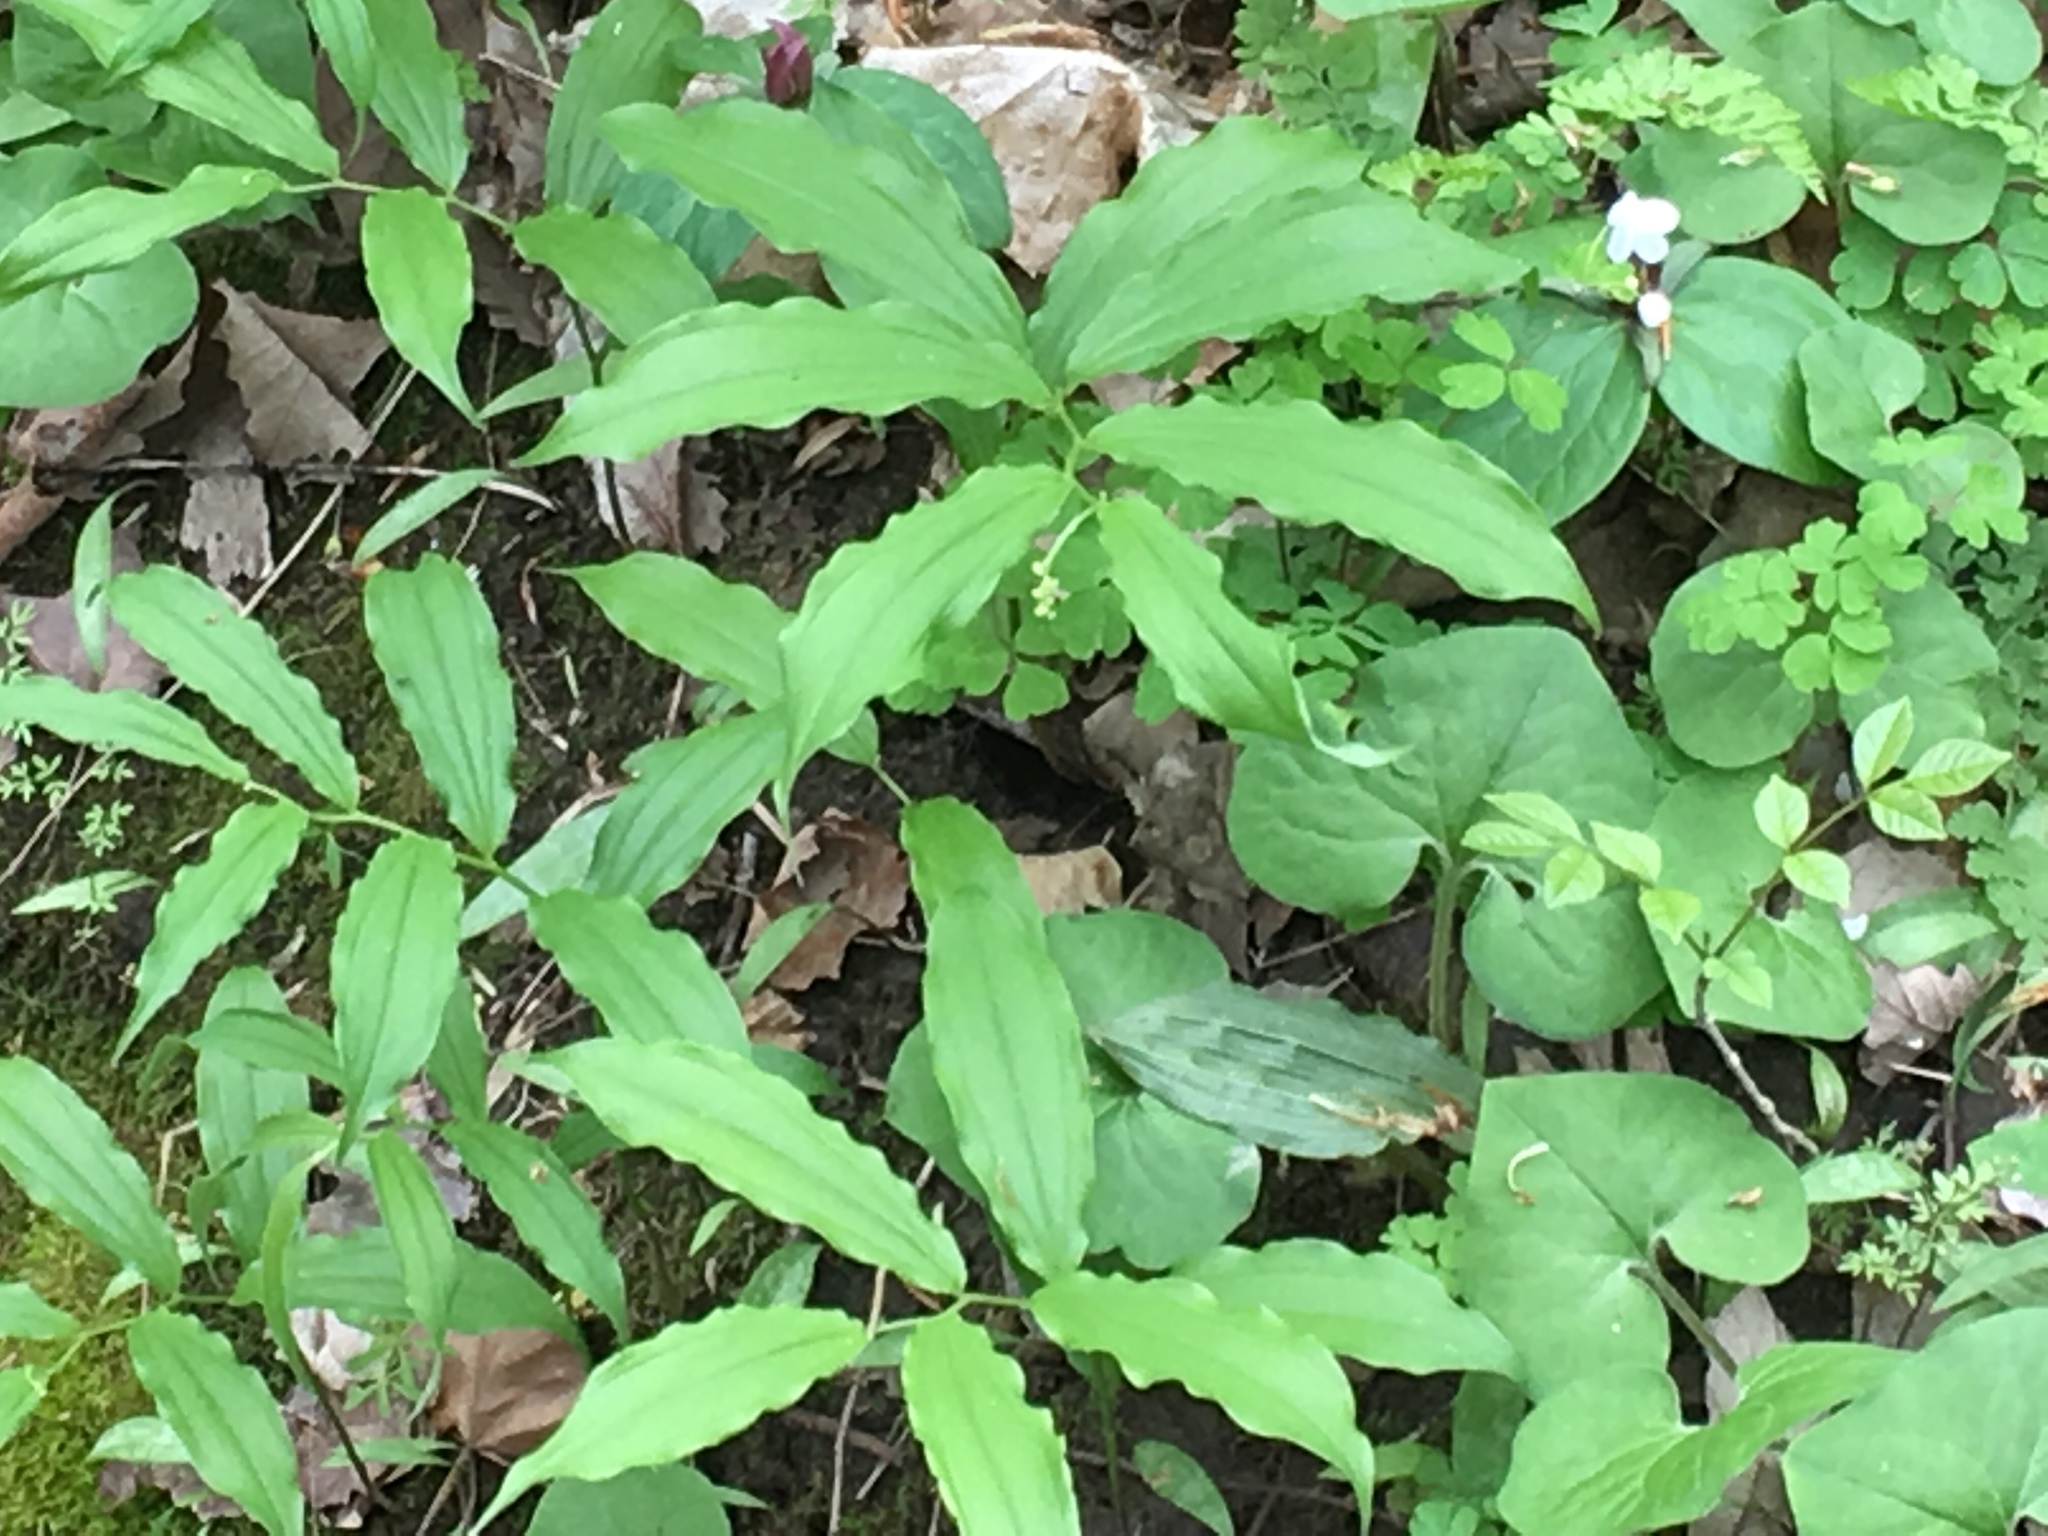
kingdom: Plantae
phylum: Tracheophyta
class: Liliopsida
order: Asparagales
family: Asparagaceae
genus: Maianthemum
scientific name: Maianthemum racemosum
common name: False spikenard
